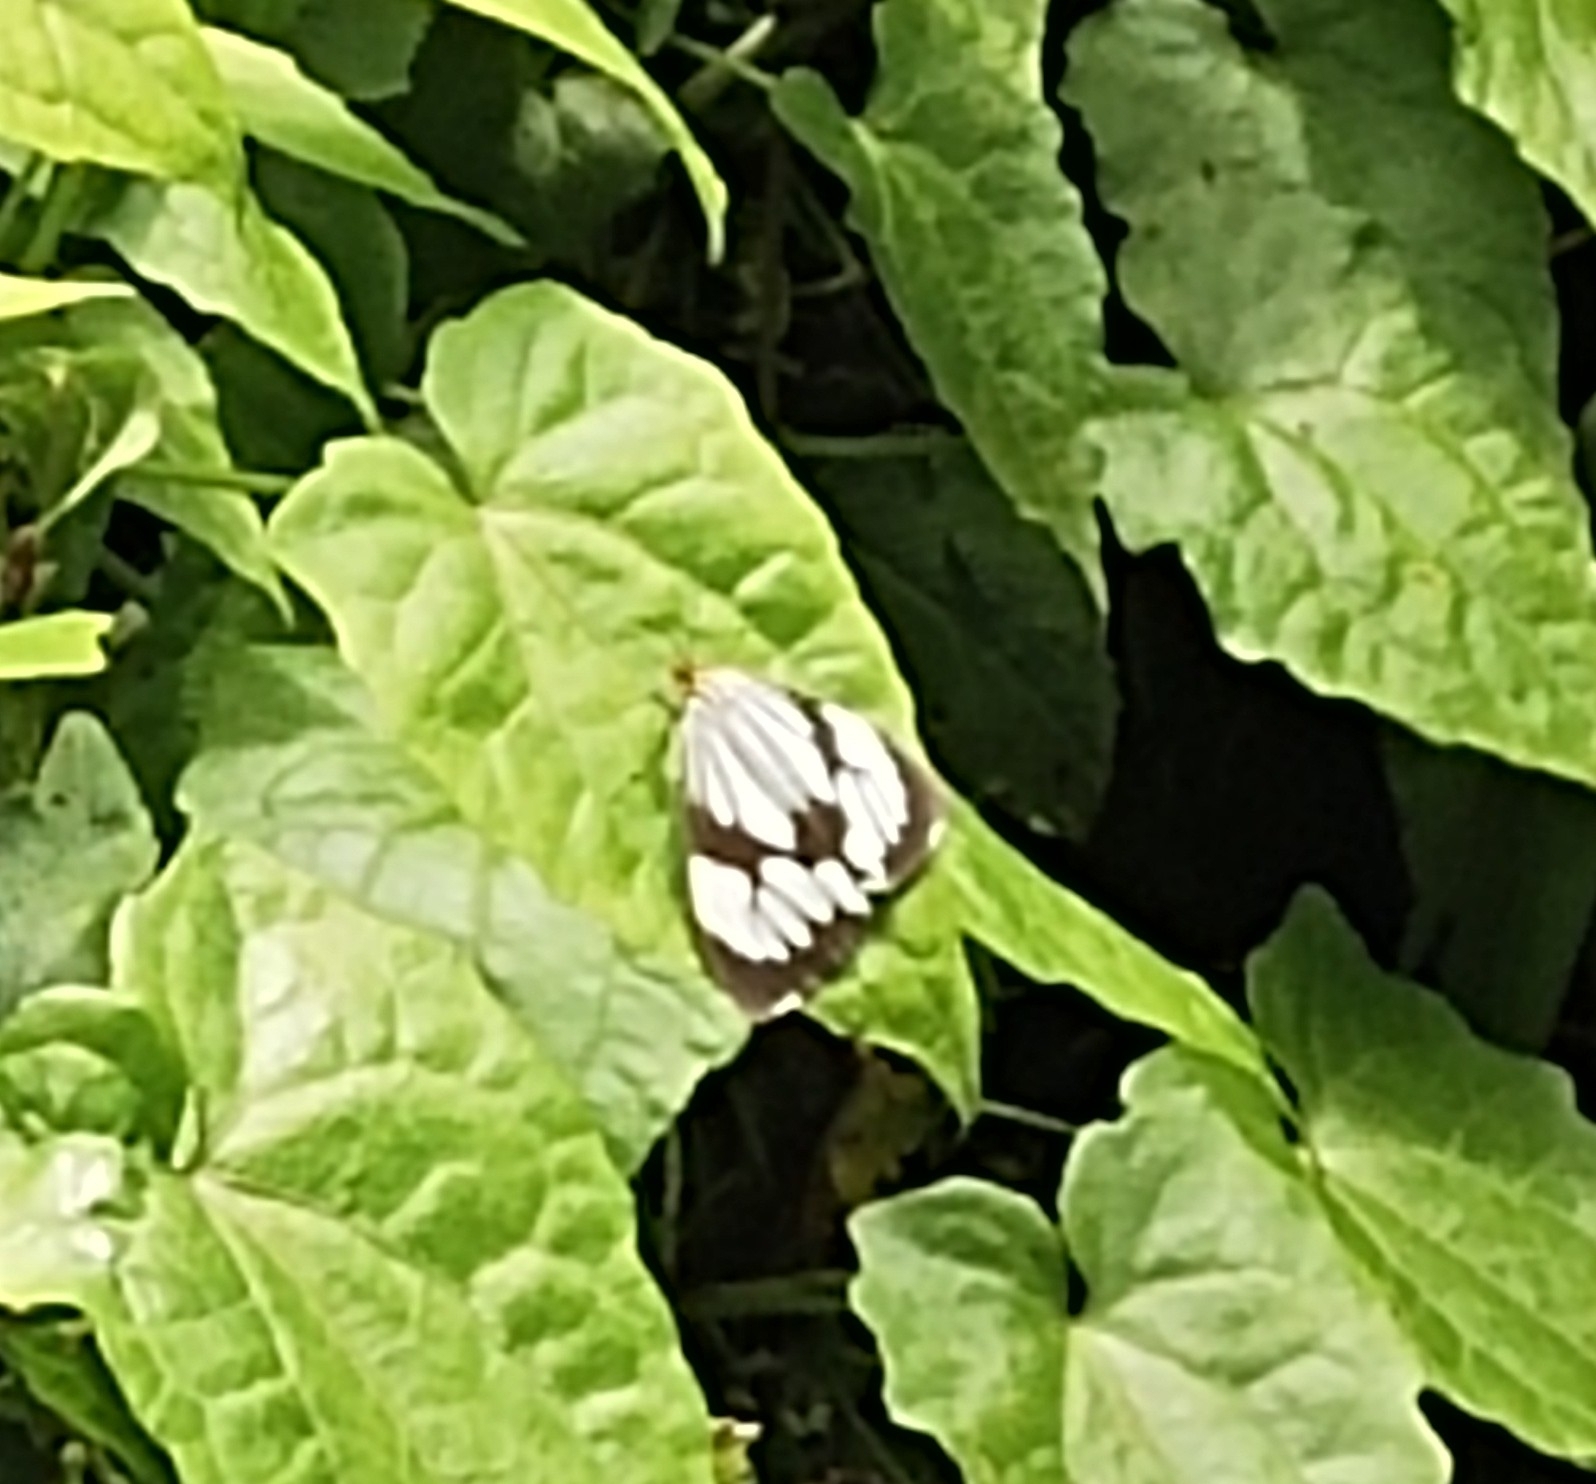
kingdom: Animalia
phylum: Arthropoda
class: Insecta
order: Lepidoptera
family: Erebidae
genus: Nyctemera
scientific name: Nyctemera coleta
